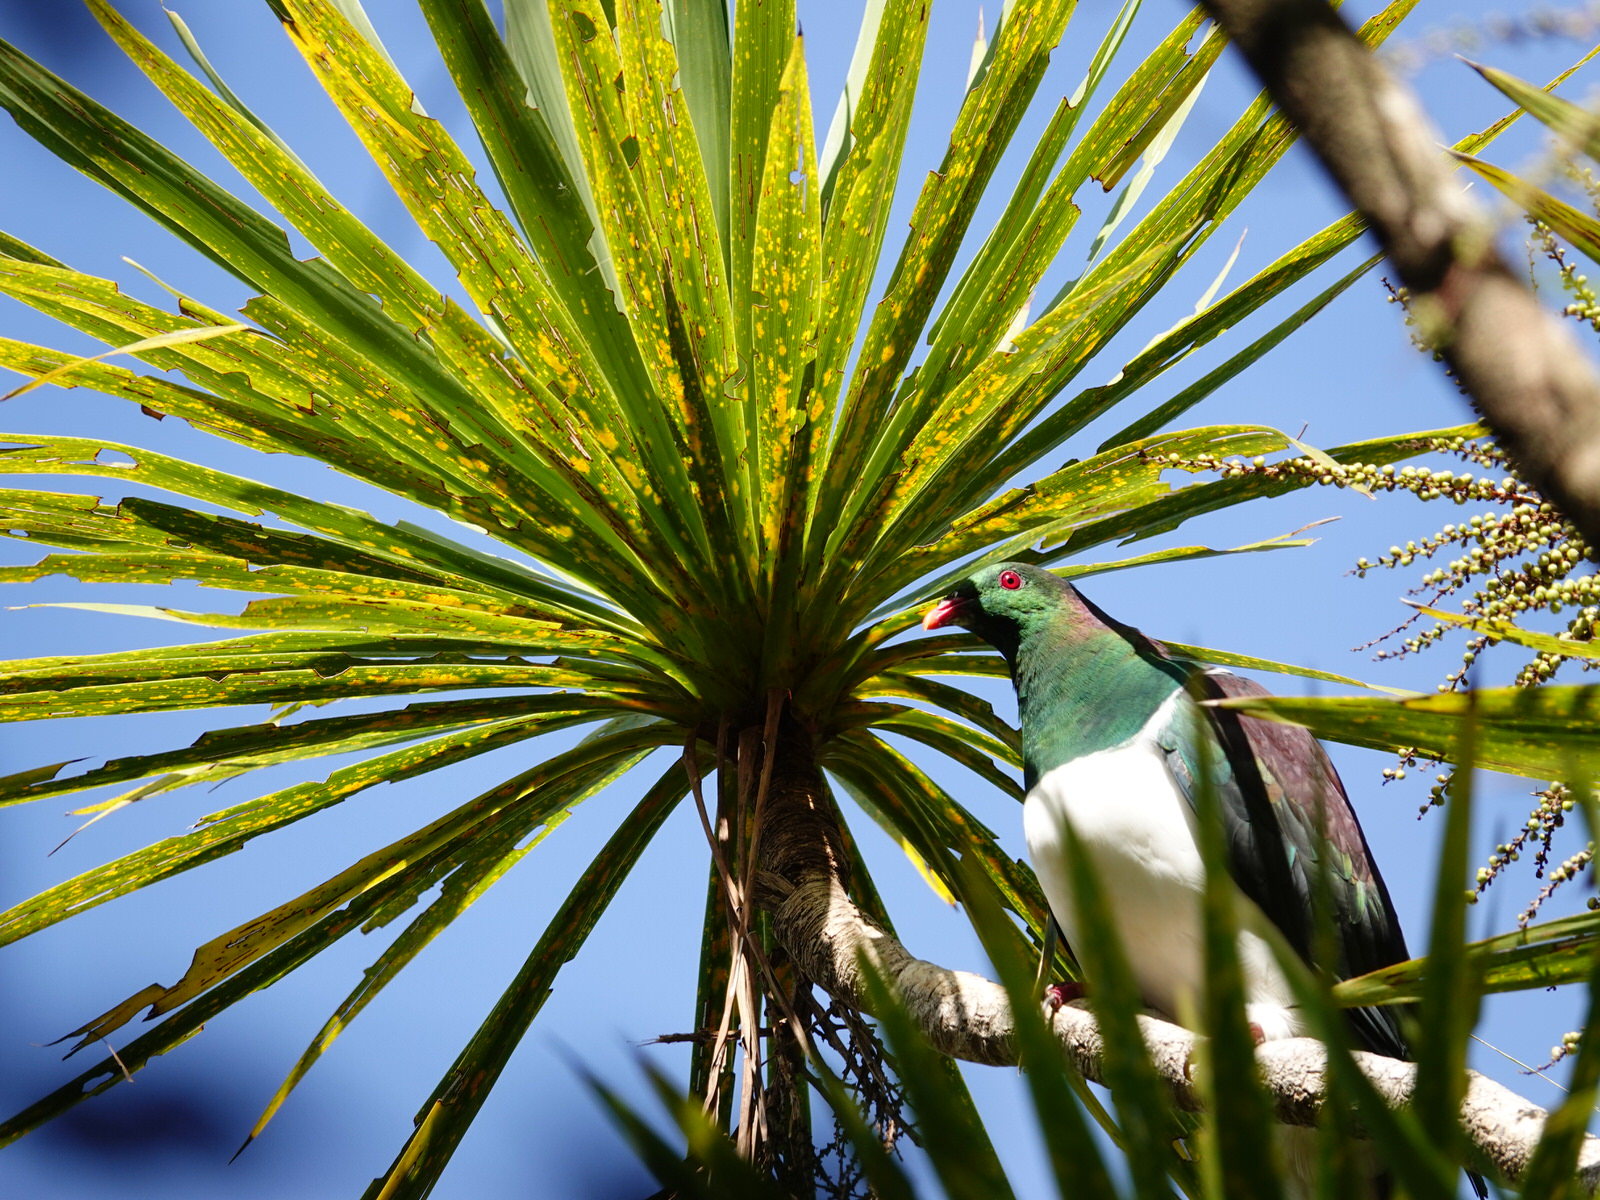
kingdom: Animalia
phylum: Chordata
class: Aves
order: Columbiformes
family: Columbidae
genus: Hemiphaga
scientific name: Hemiphaga novaeseelandiae
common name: New zealand pigeon
